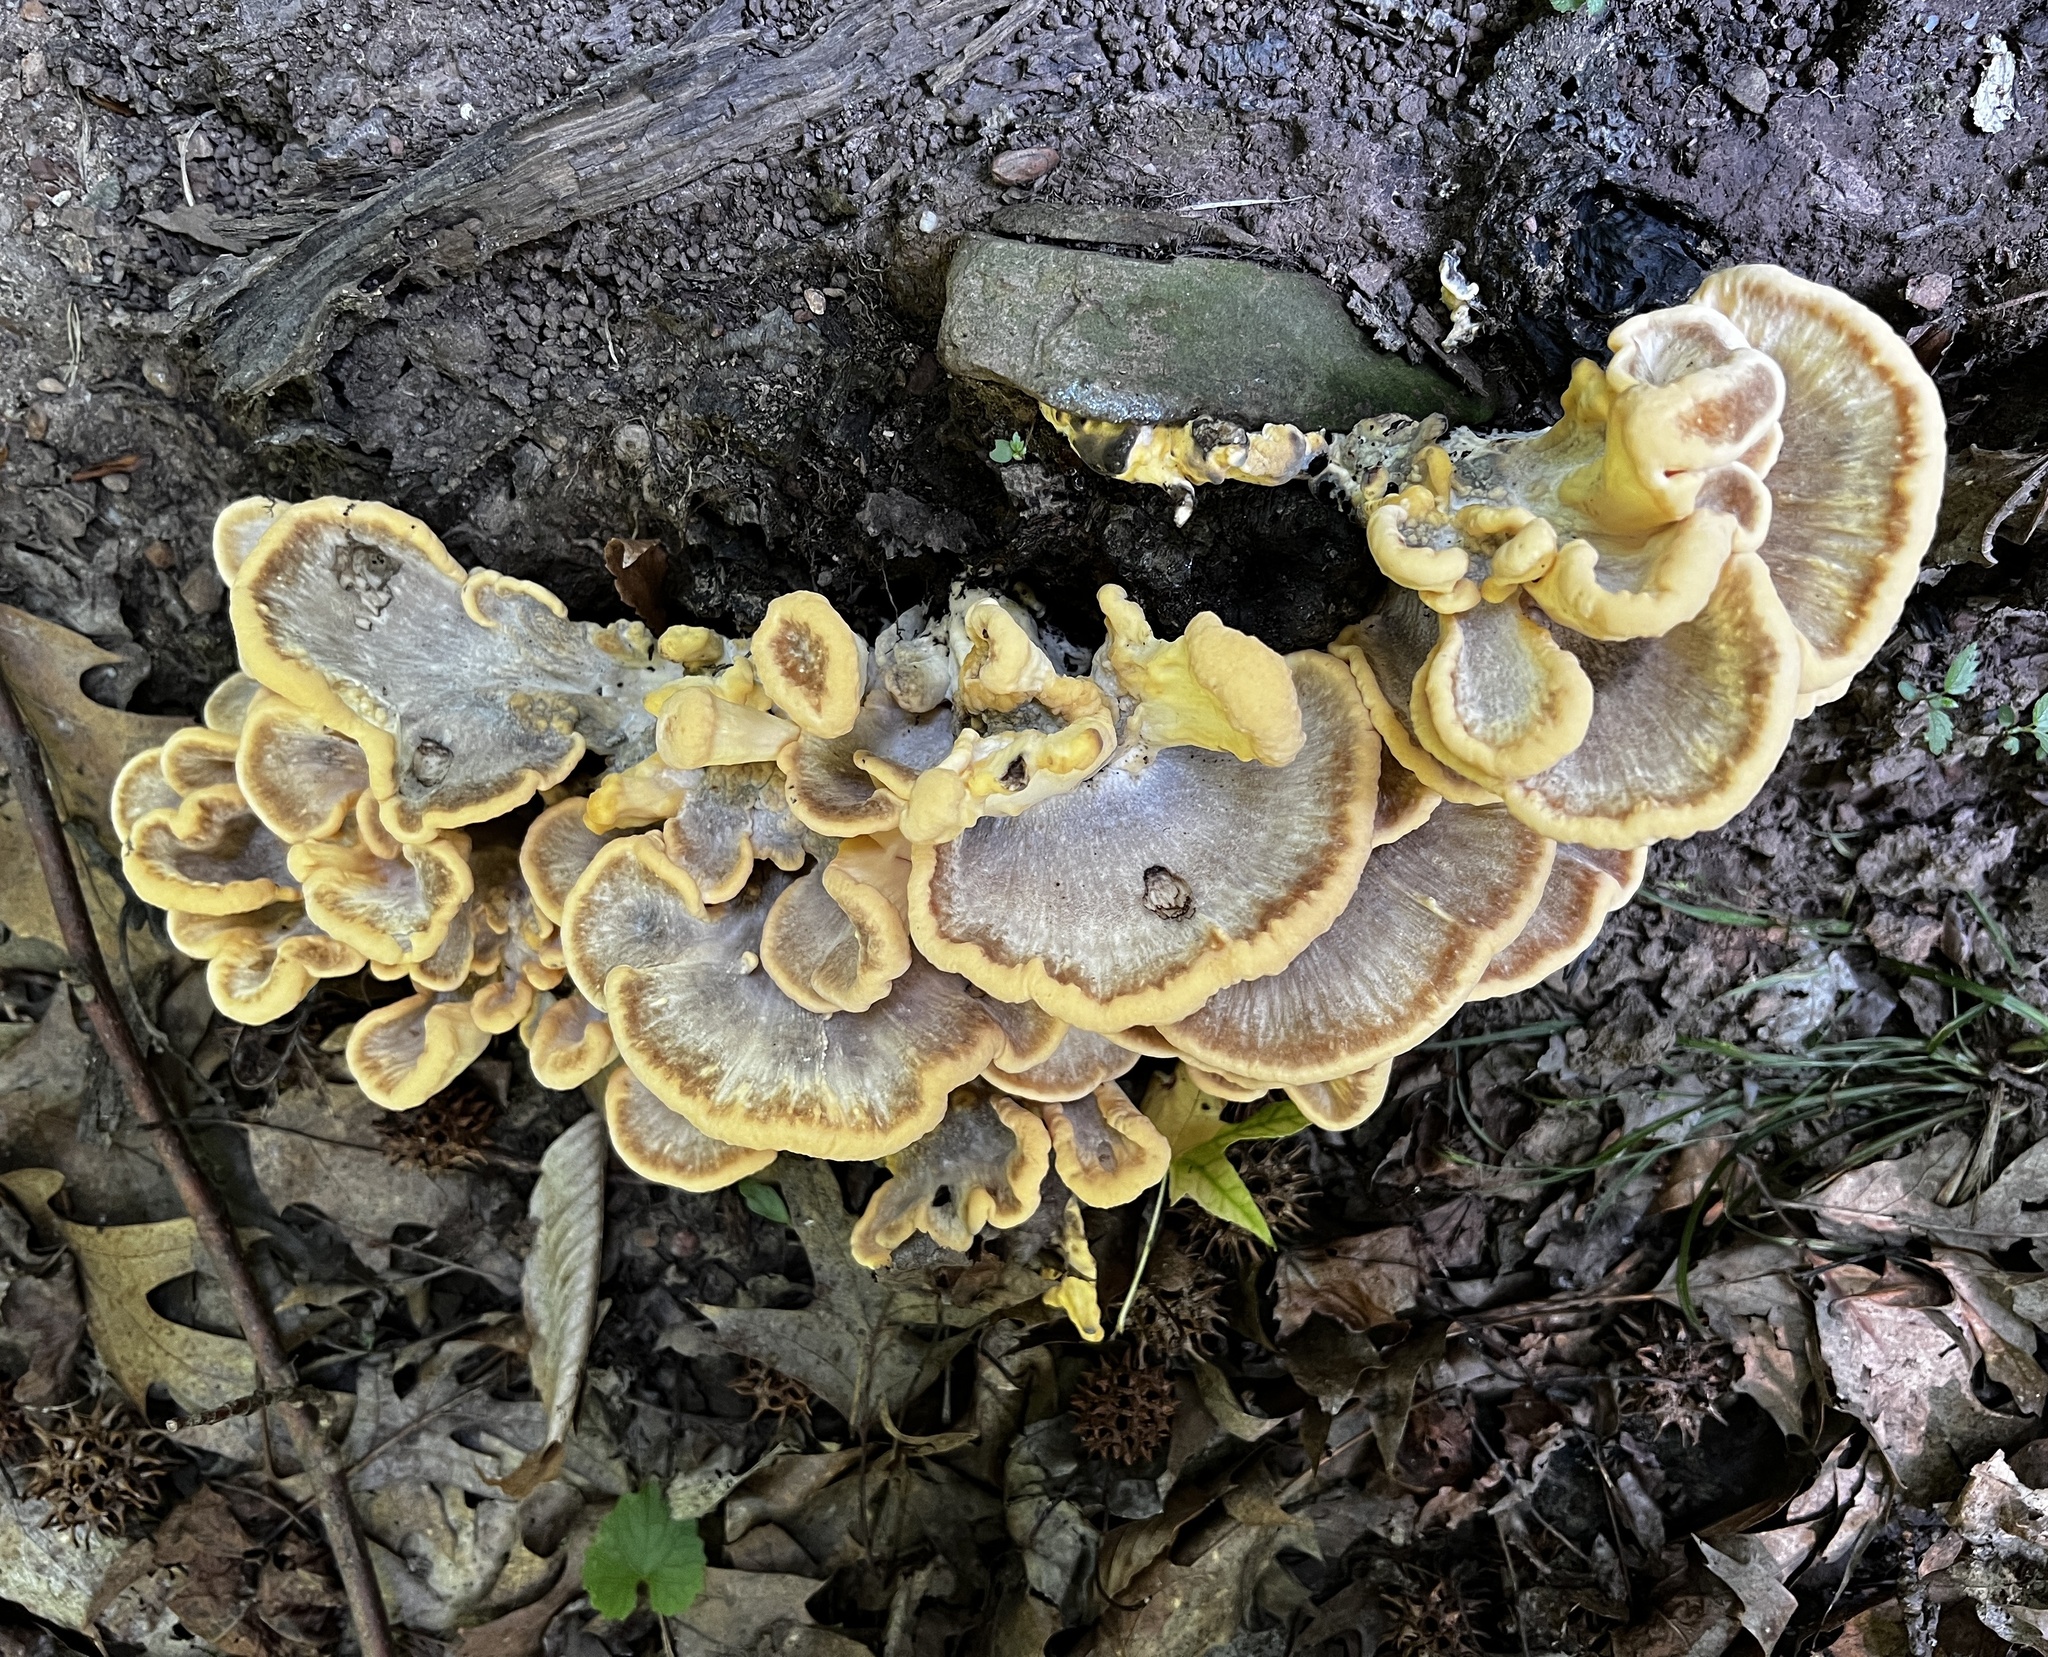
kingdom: Fungi
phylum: Basidiomycota
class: Agaricomycetes
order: Polyporales
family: Meripilaceae
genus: Meripilus
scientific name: Meripilus sumstinei
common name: Black-staining polypore
